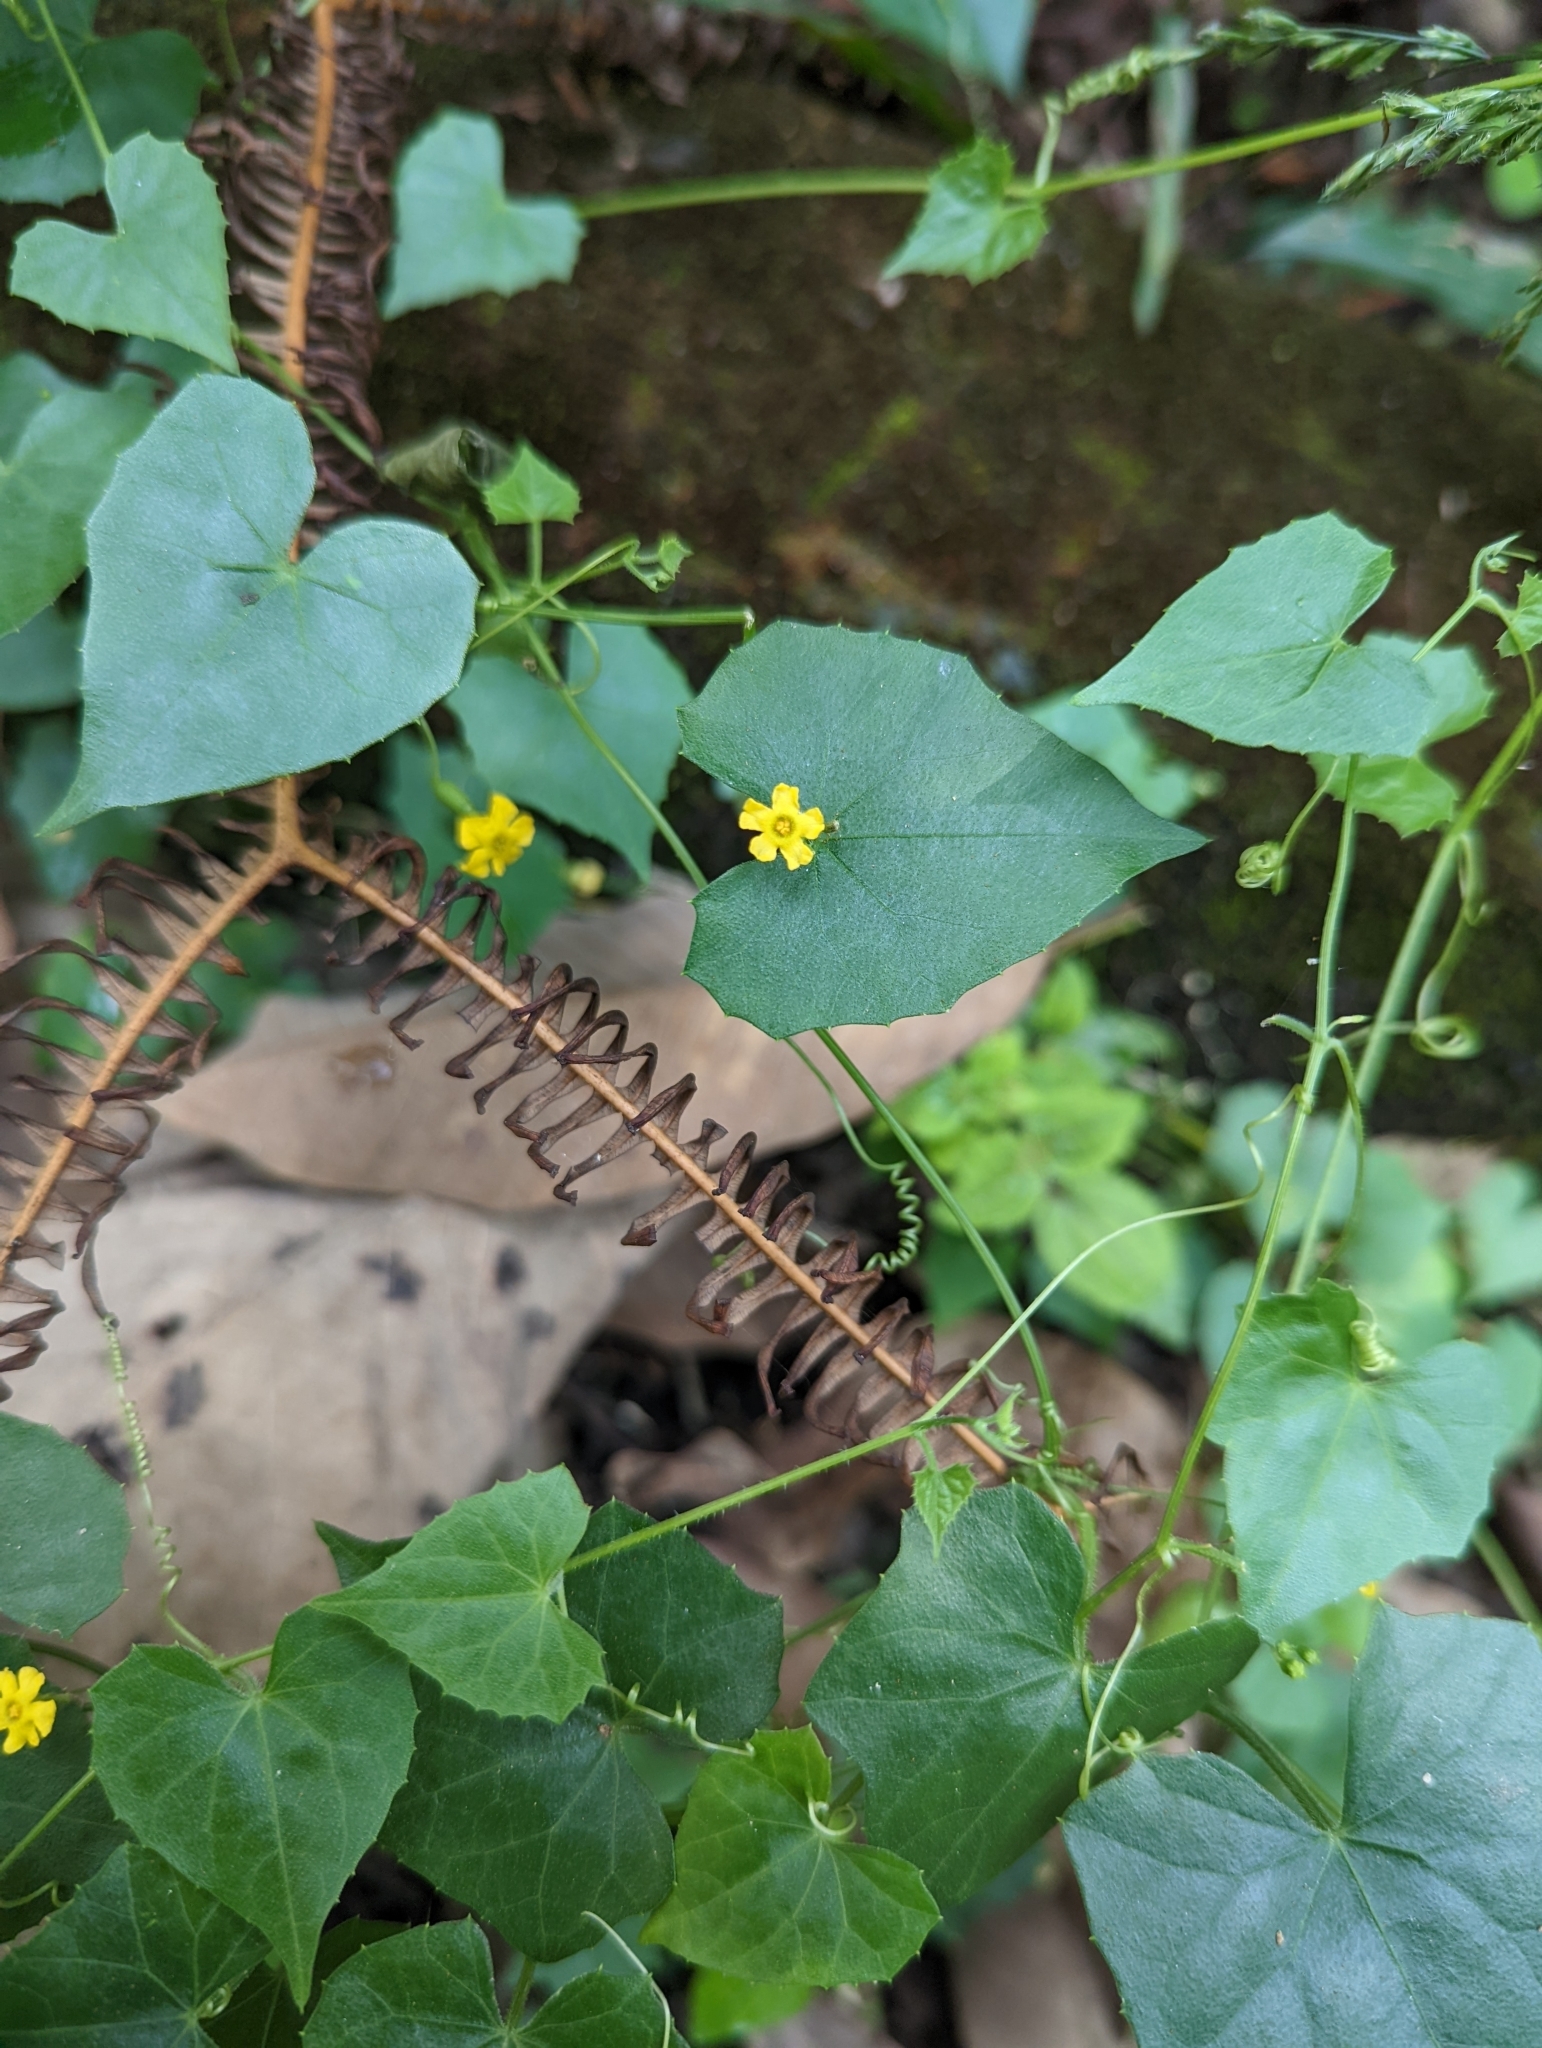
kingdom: Plantae
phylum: Tracheophyta
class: Magnoliopsida
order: Cucurbitales
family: Cucurbitaceae
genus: Melothria
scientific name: Melothria pendula
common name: Creeping-cucumber
